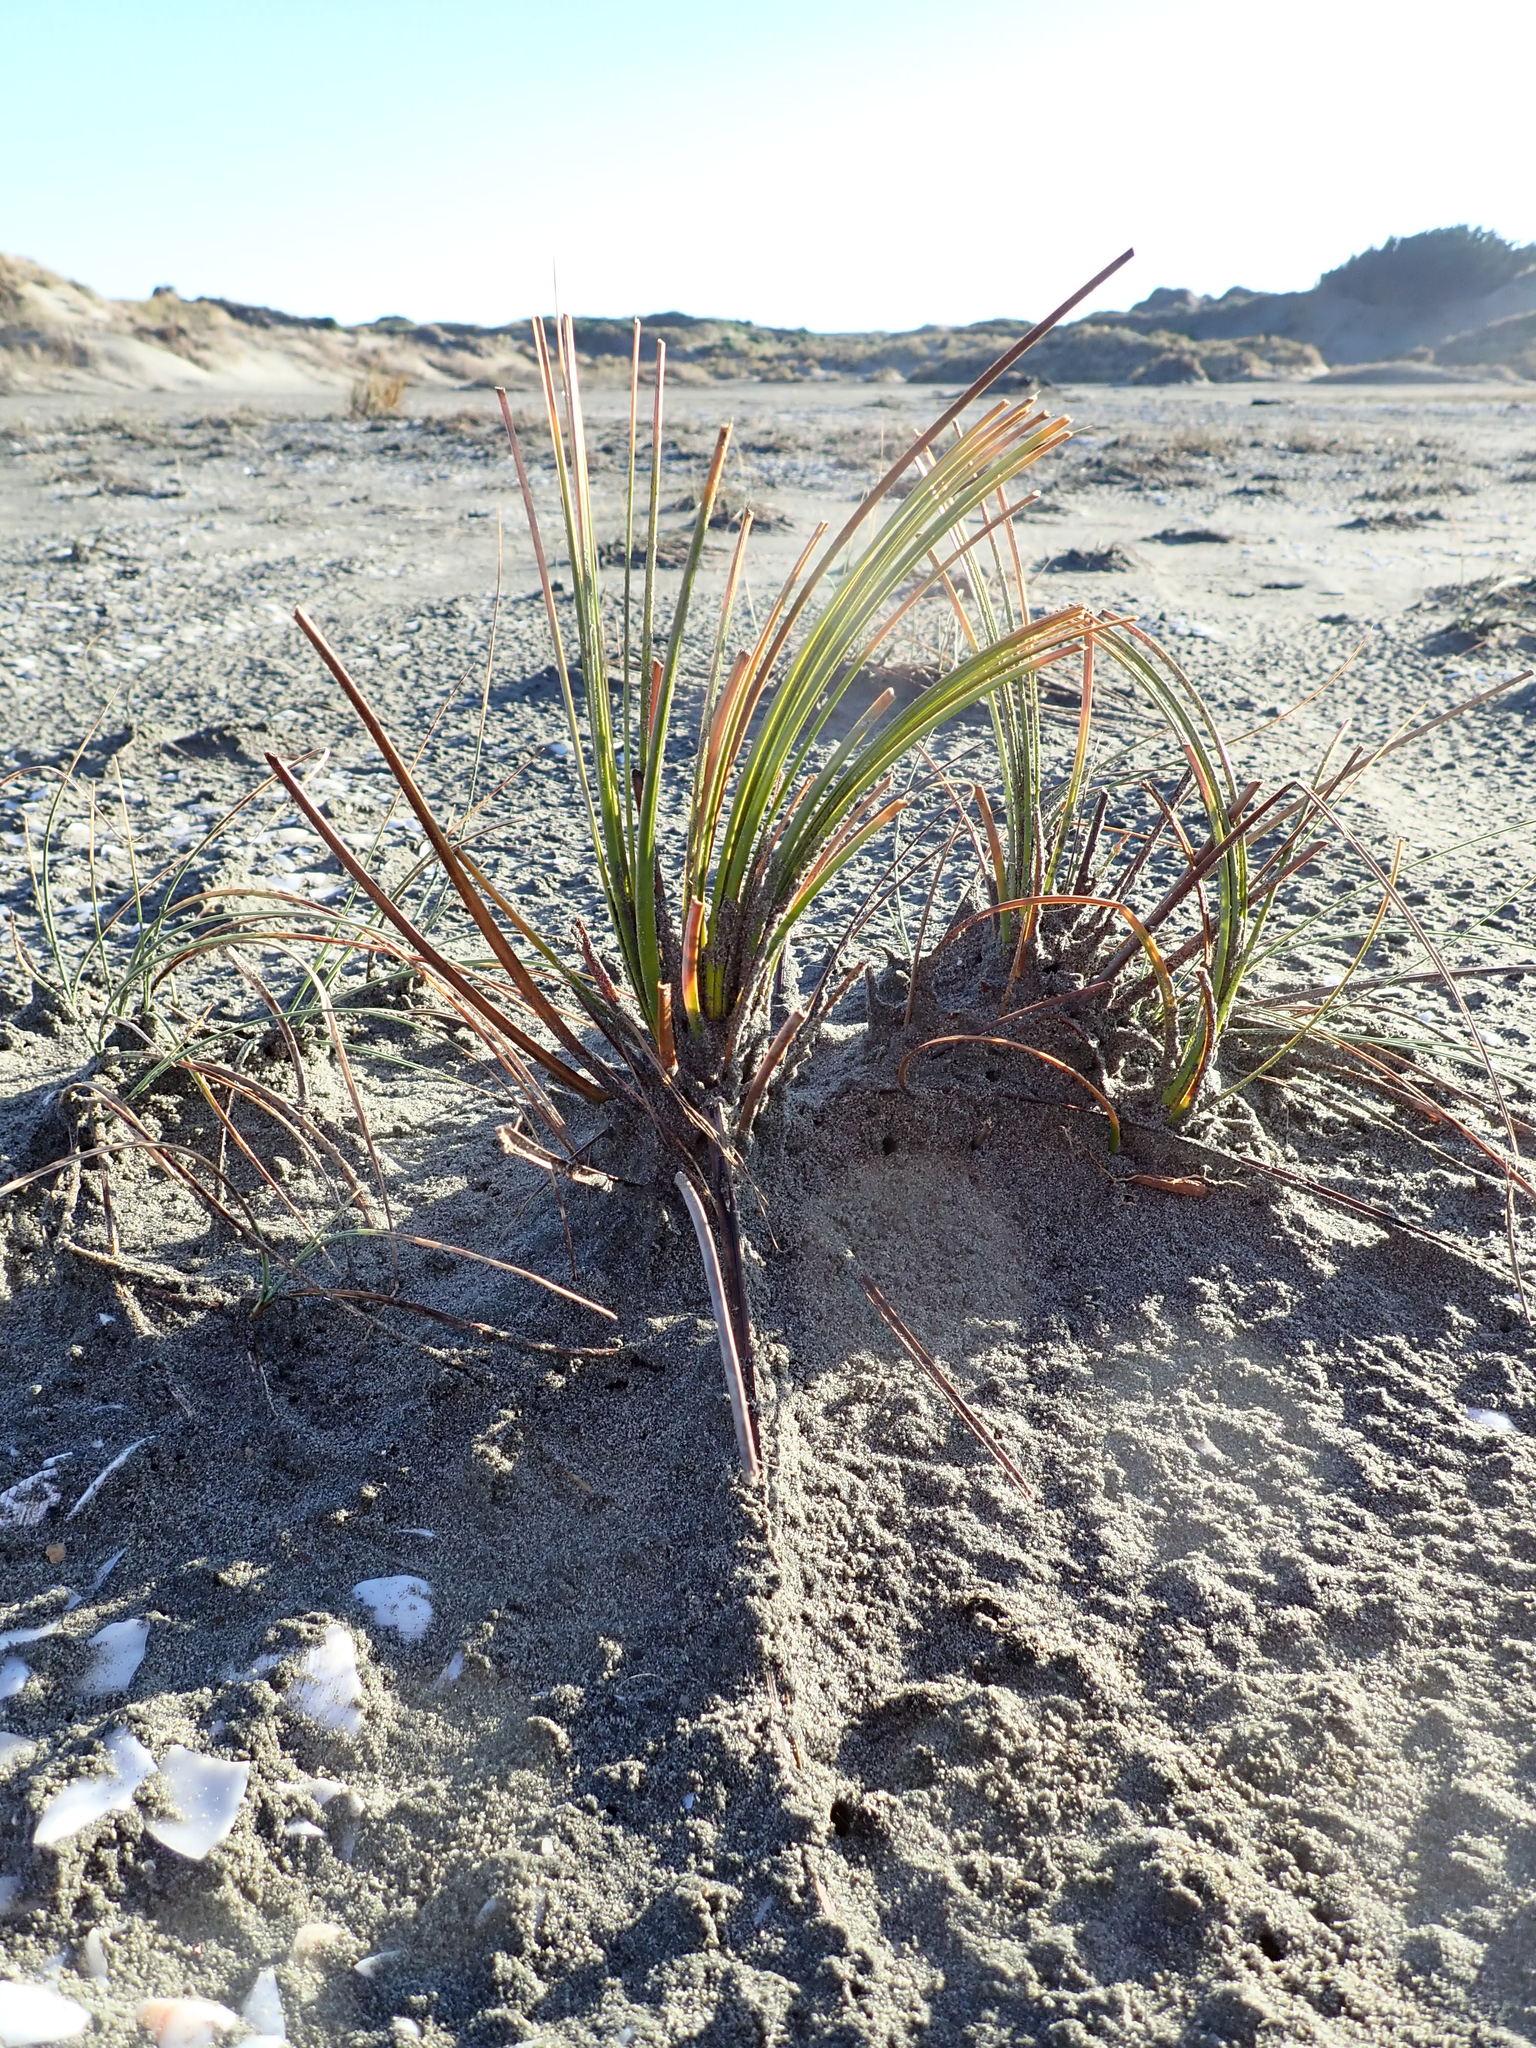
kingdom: Plantae
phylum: Tracheophyta
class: Liliopsida
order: Poales
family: Cyperaceae
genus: Ficinia
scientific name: Ficinia spiralis
